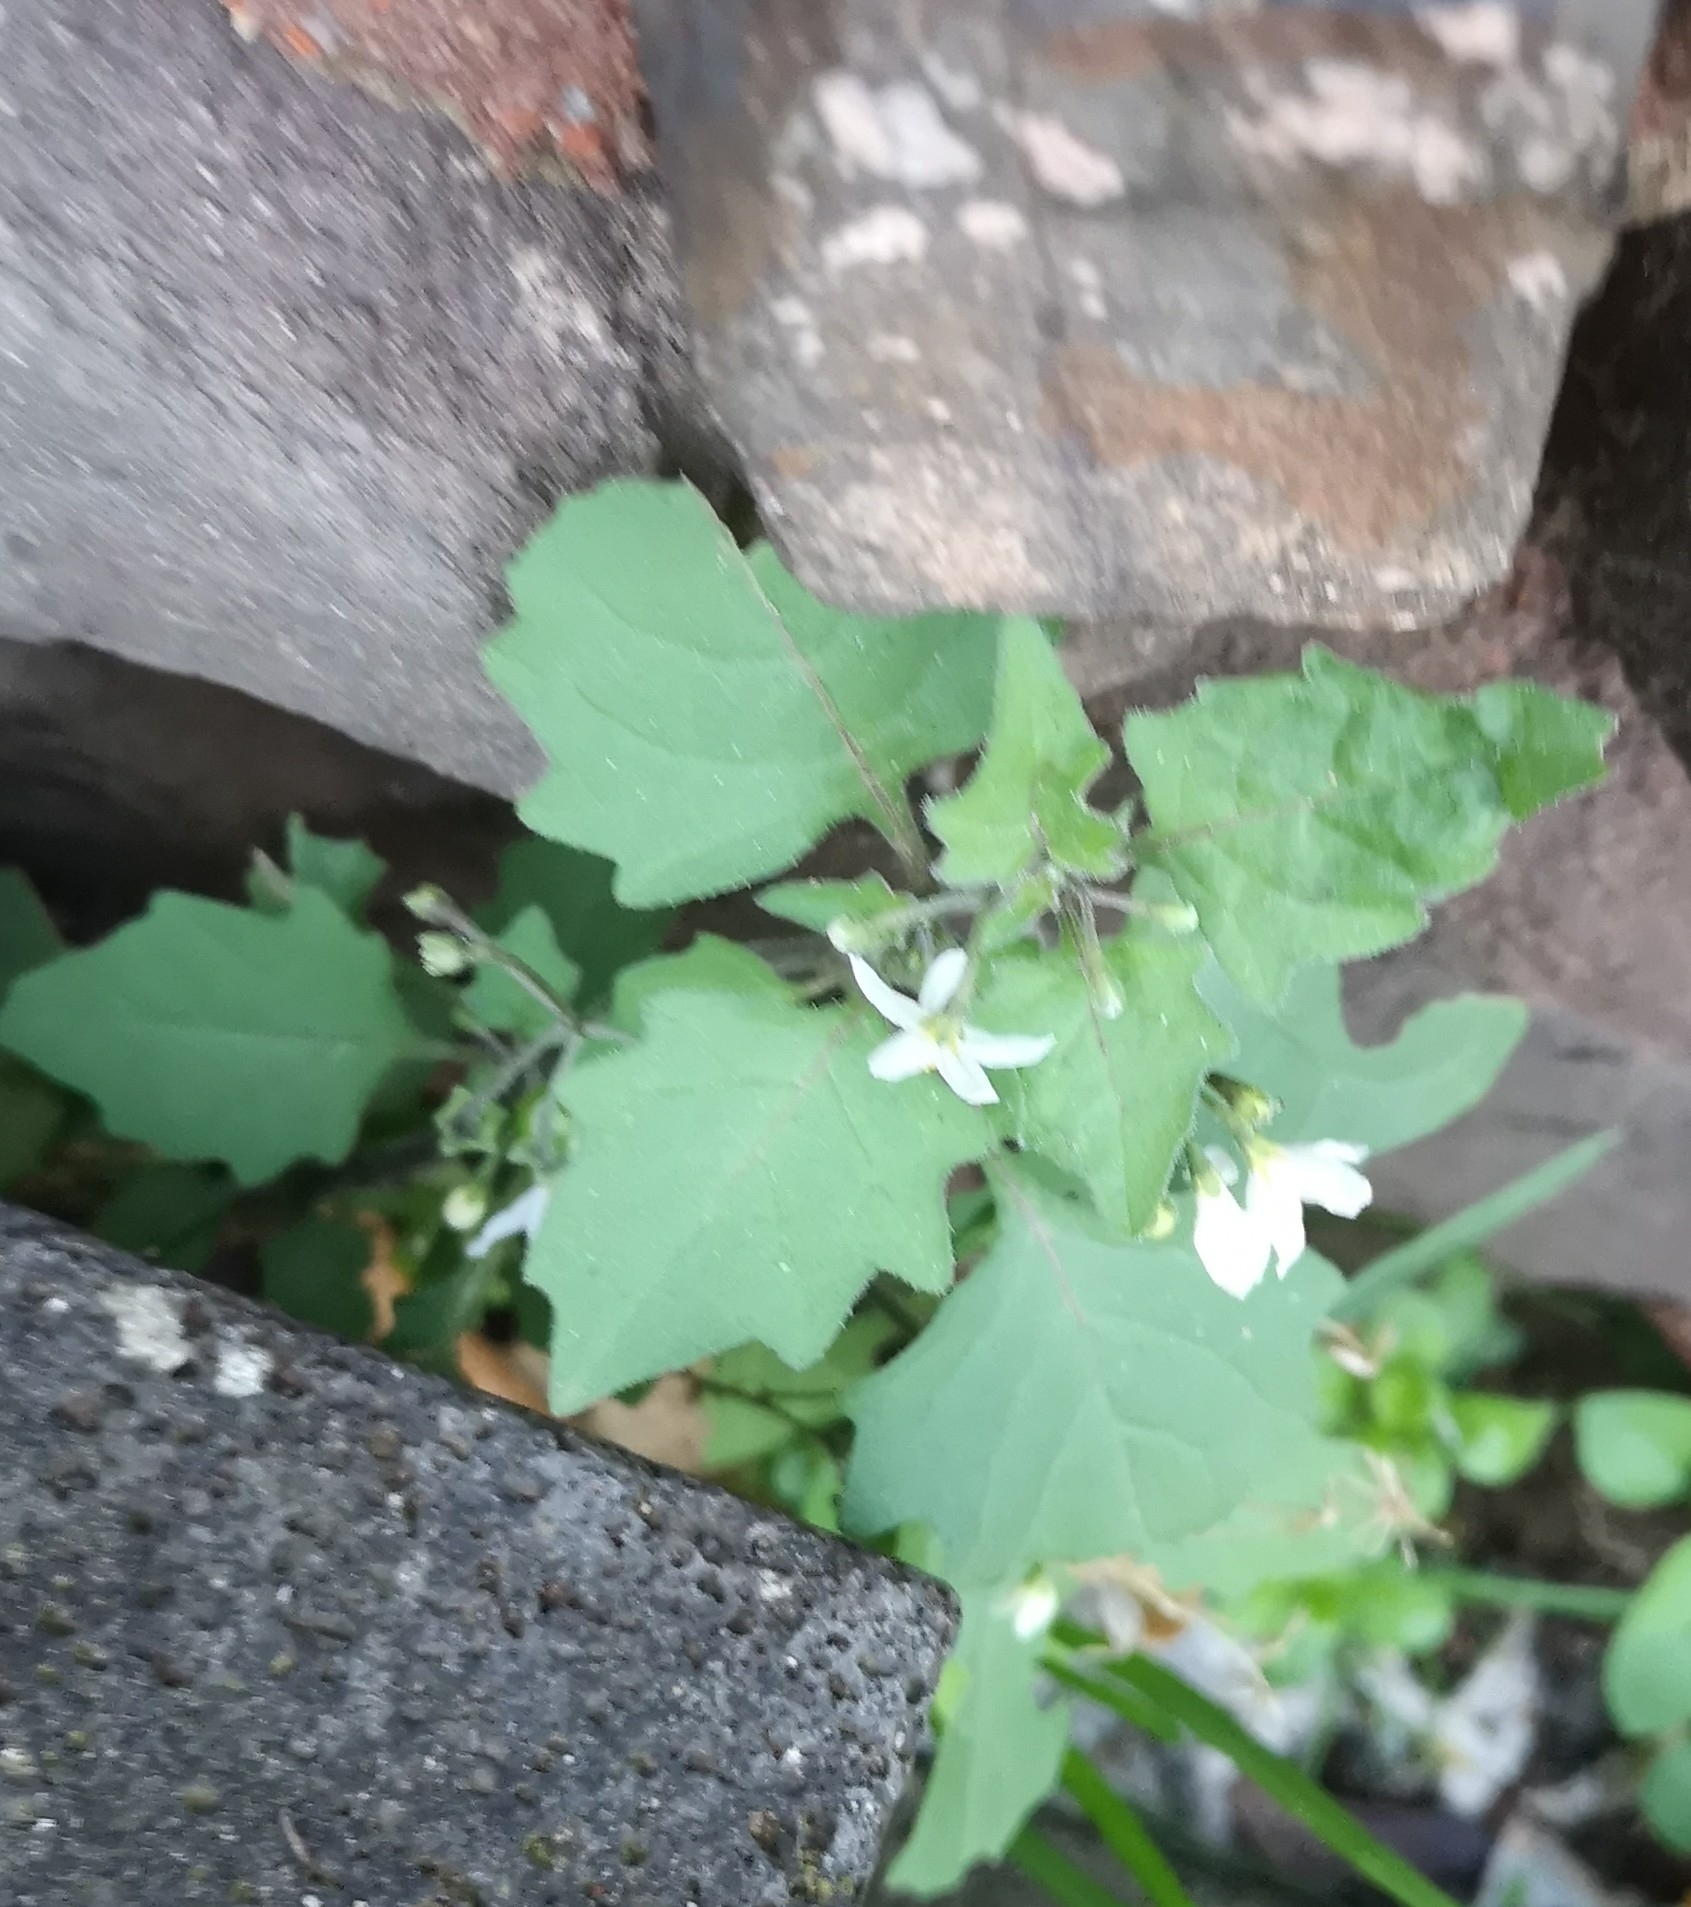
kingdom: Plantae
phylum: Tracheophyta
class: Magnoliopsida
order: Solanales
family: Solanaceae
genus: Solanum
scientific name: Solanum nigrum
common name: Black nightshade
